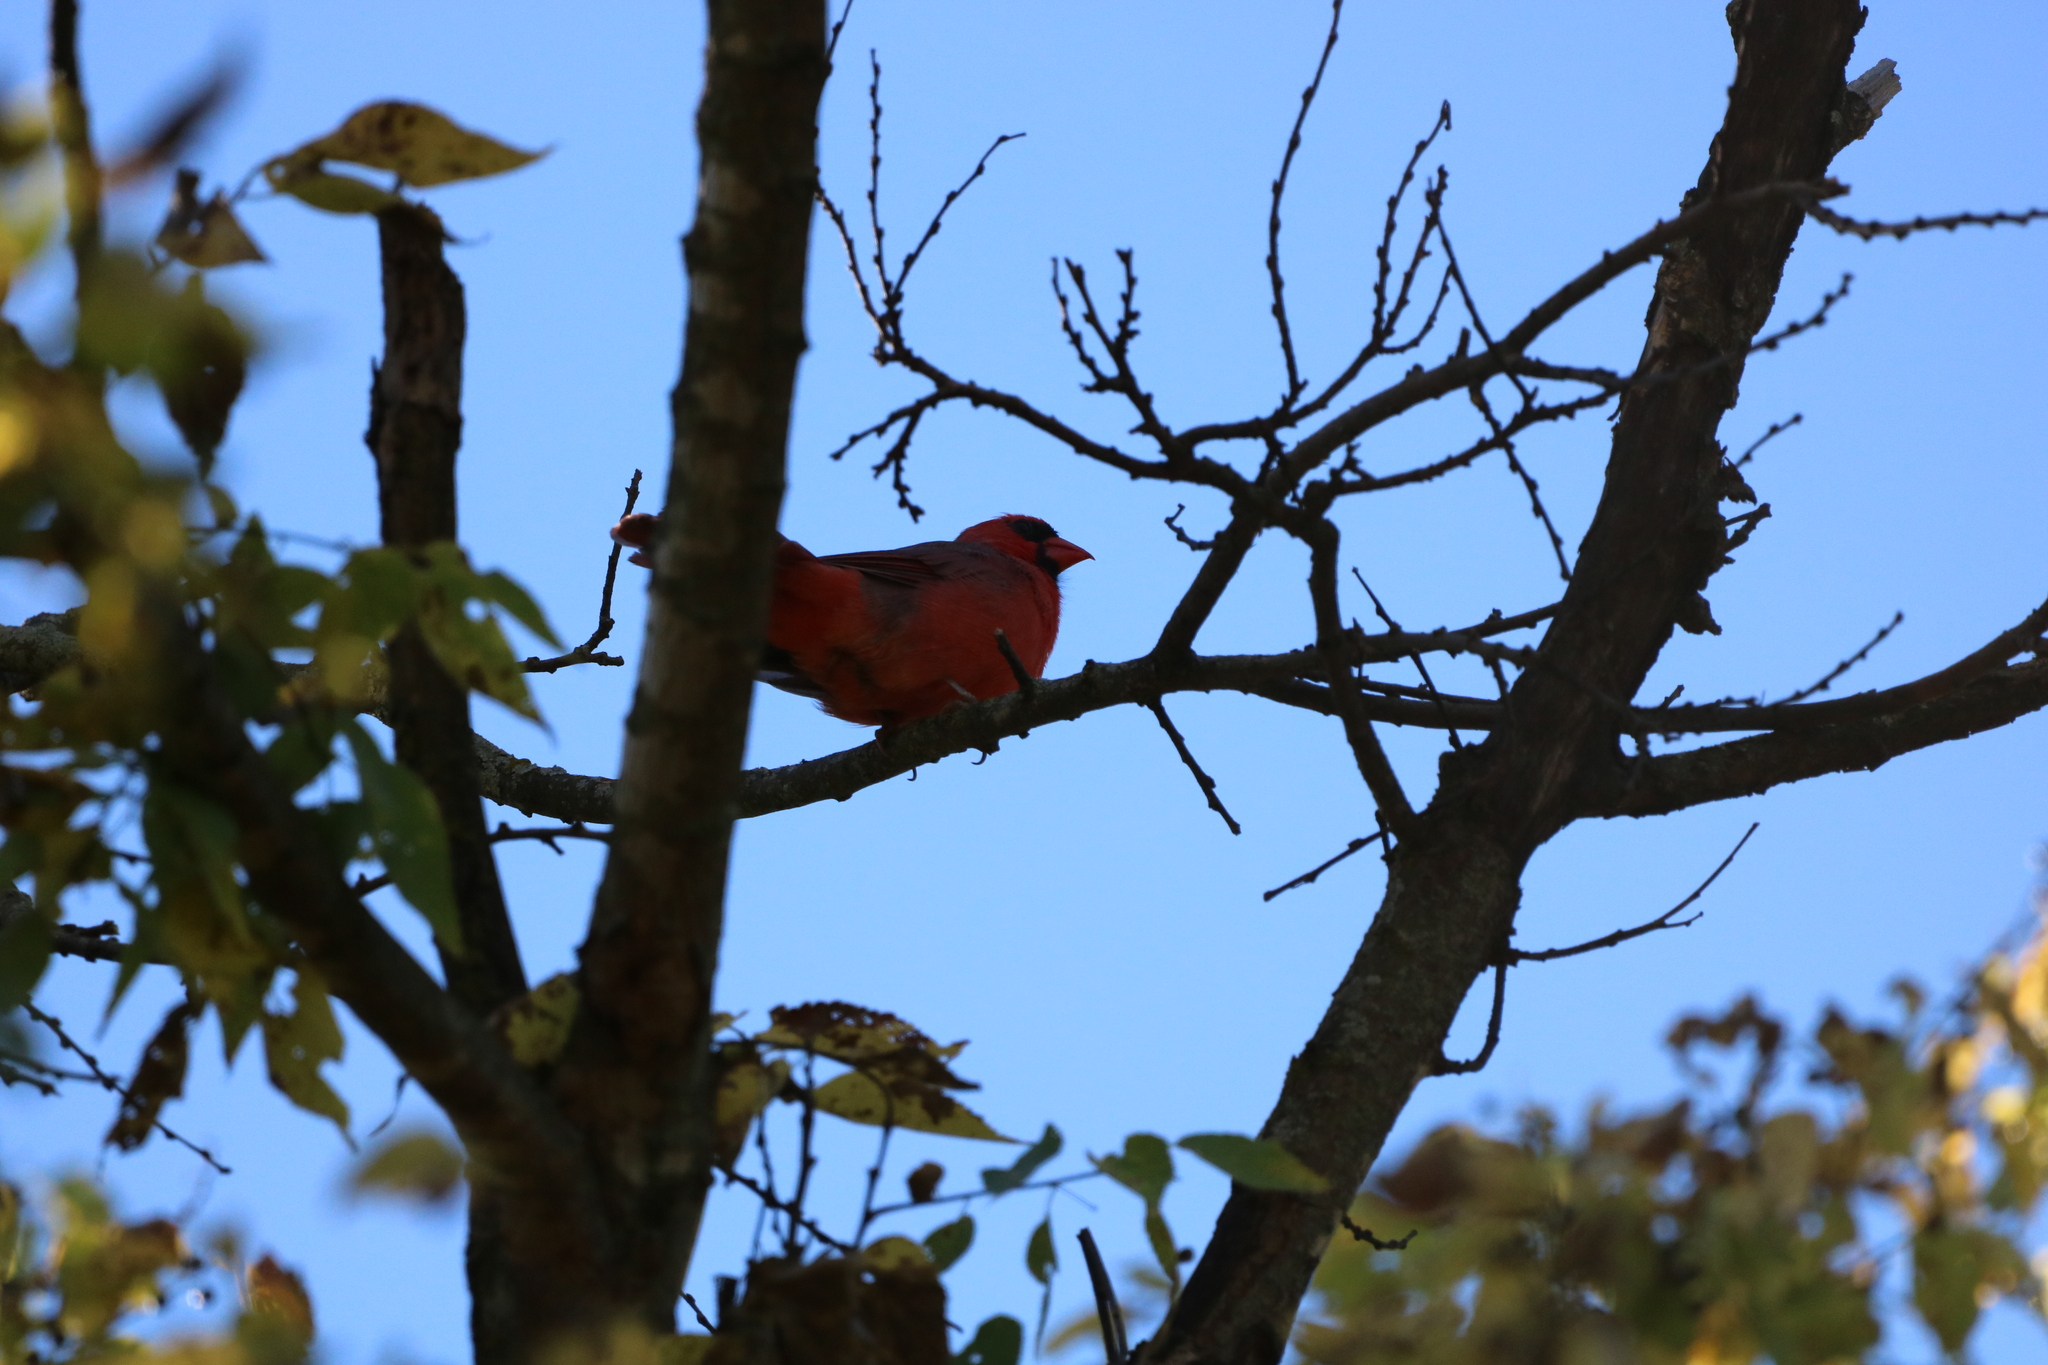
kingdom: Animalia
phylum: Chordata
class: Aves
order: Passeriformes
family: Cardinalidae
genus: Cardinalis
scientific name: Cardinalis cardinalis
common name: Northern cardinal
